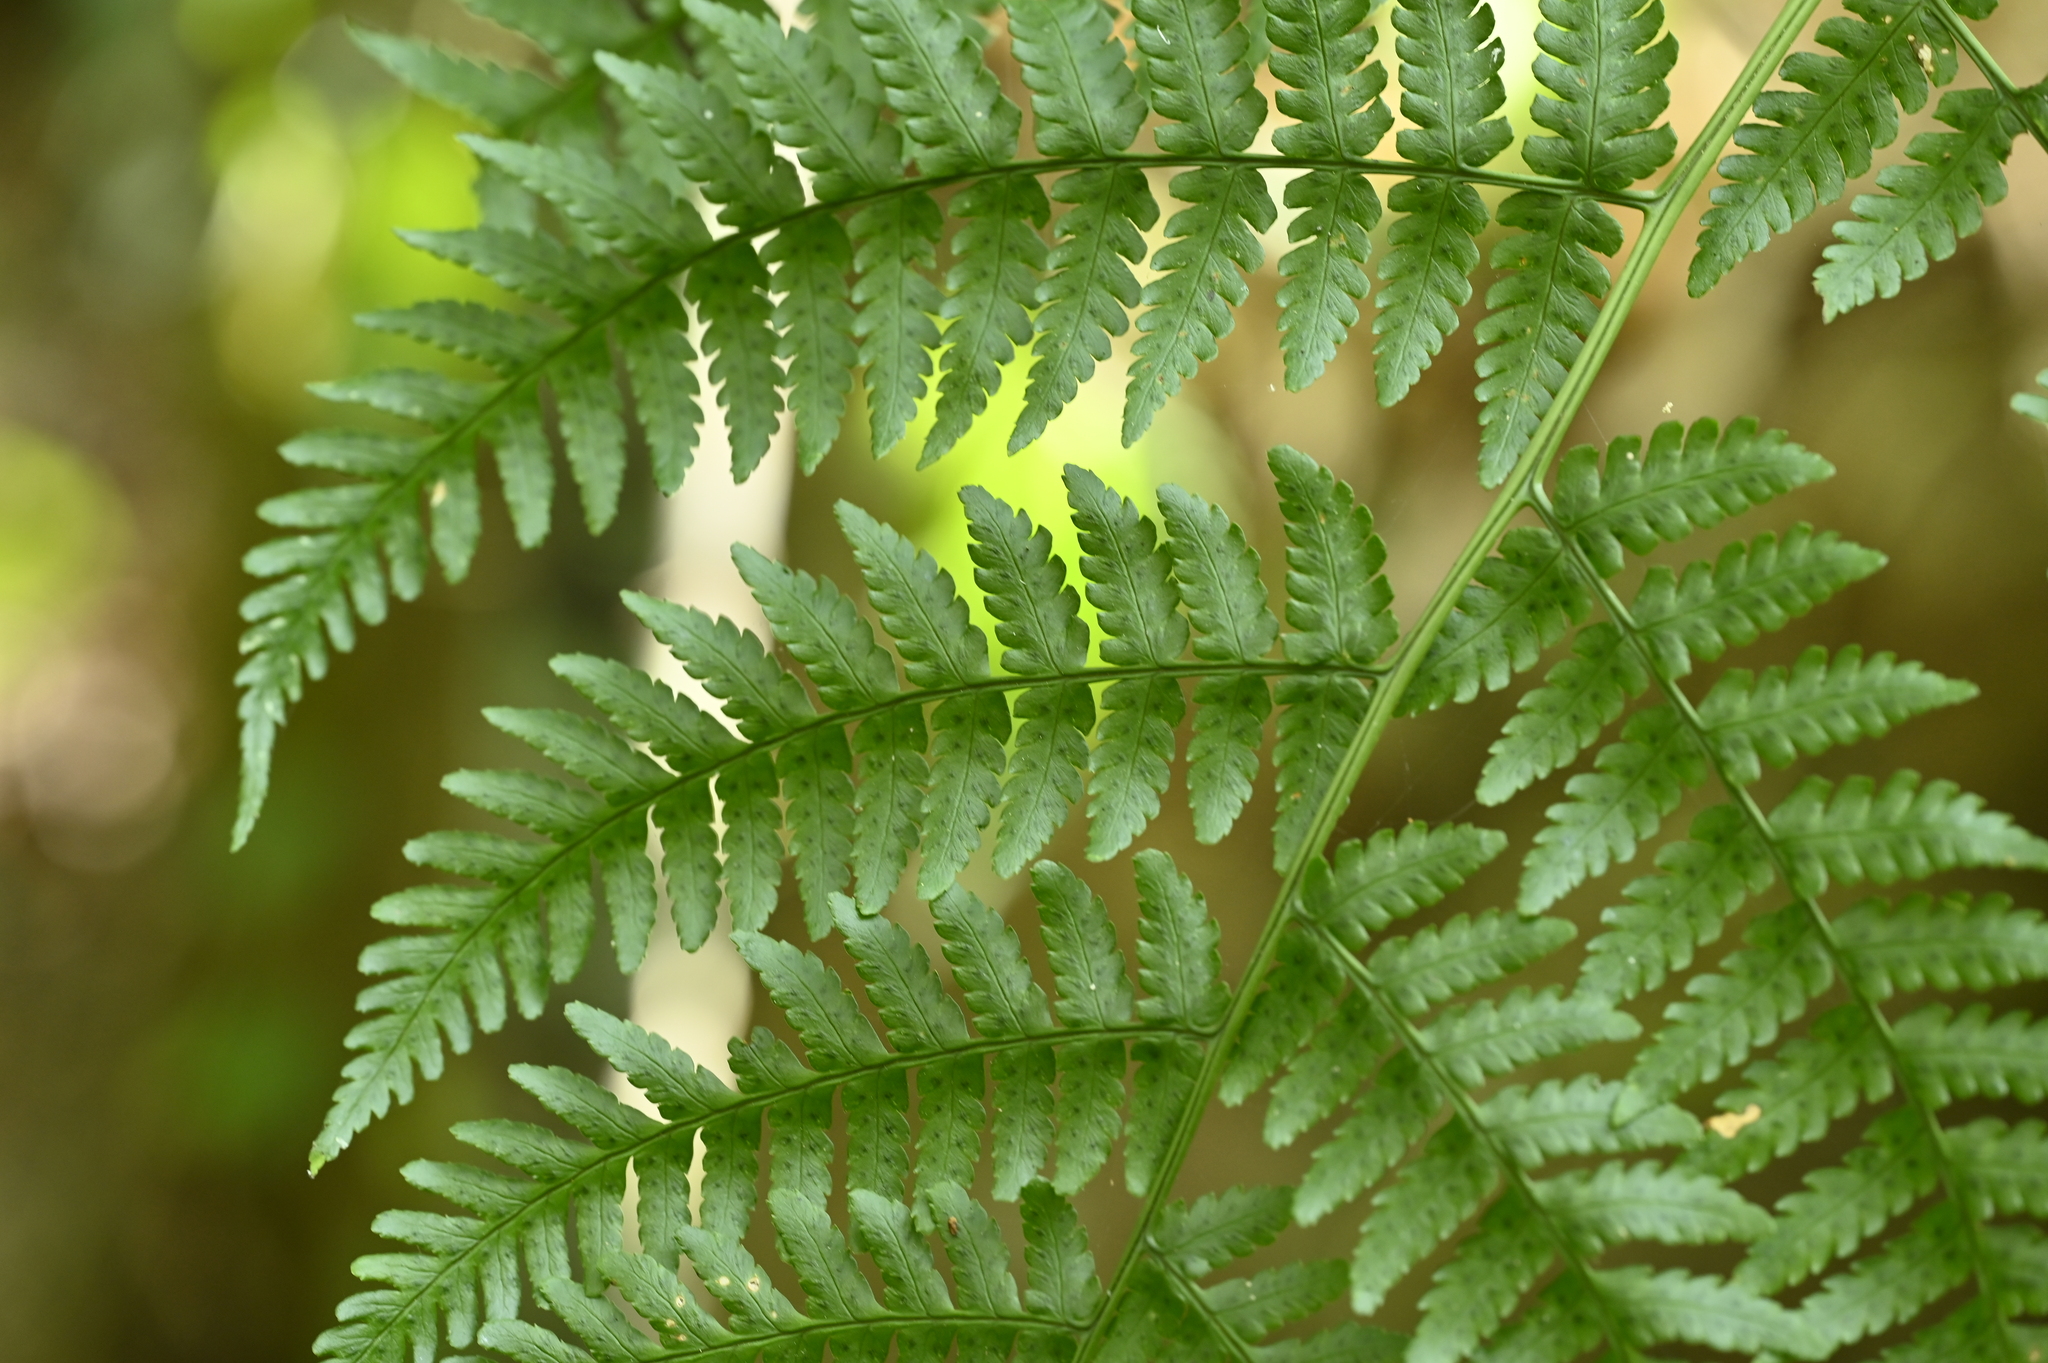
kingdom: Plantae
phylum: Tracheophyta
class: Polypodiopsida
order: Polypodiales
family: Dryopteridaceae
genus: Dryopteris
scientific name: Dryopteris marginata
